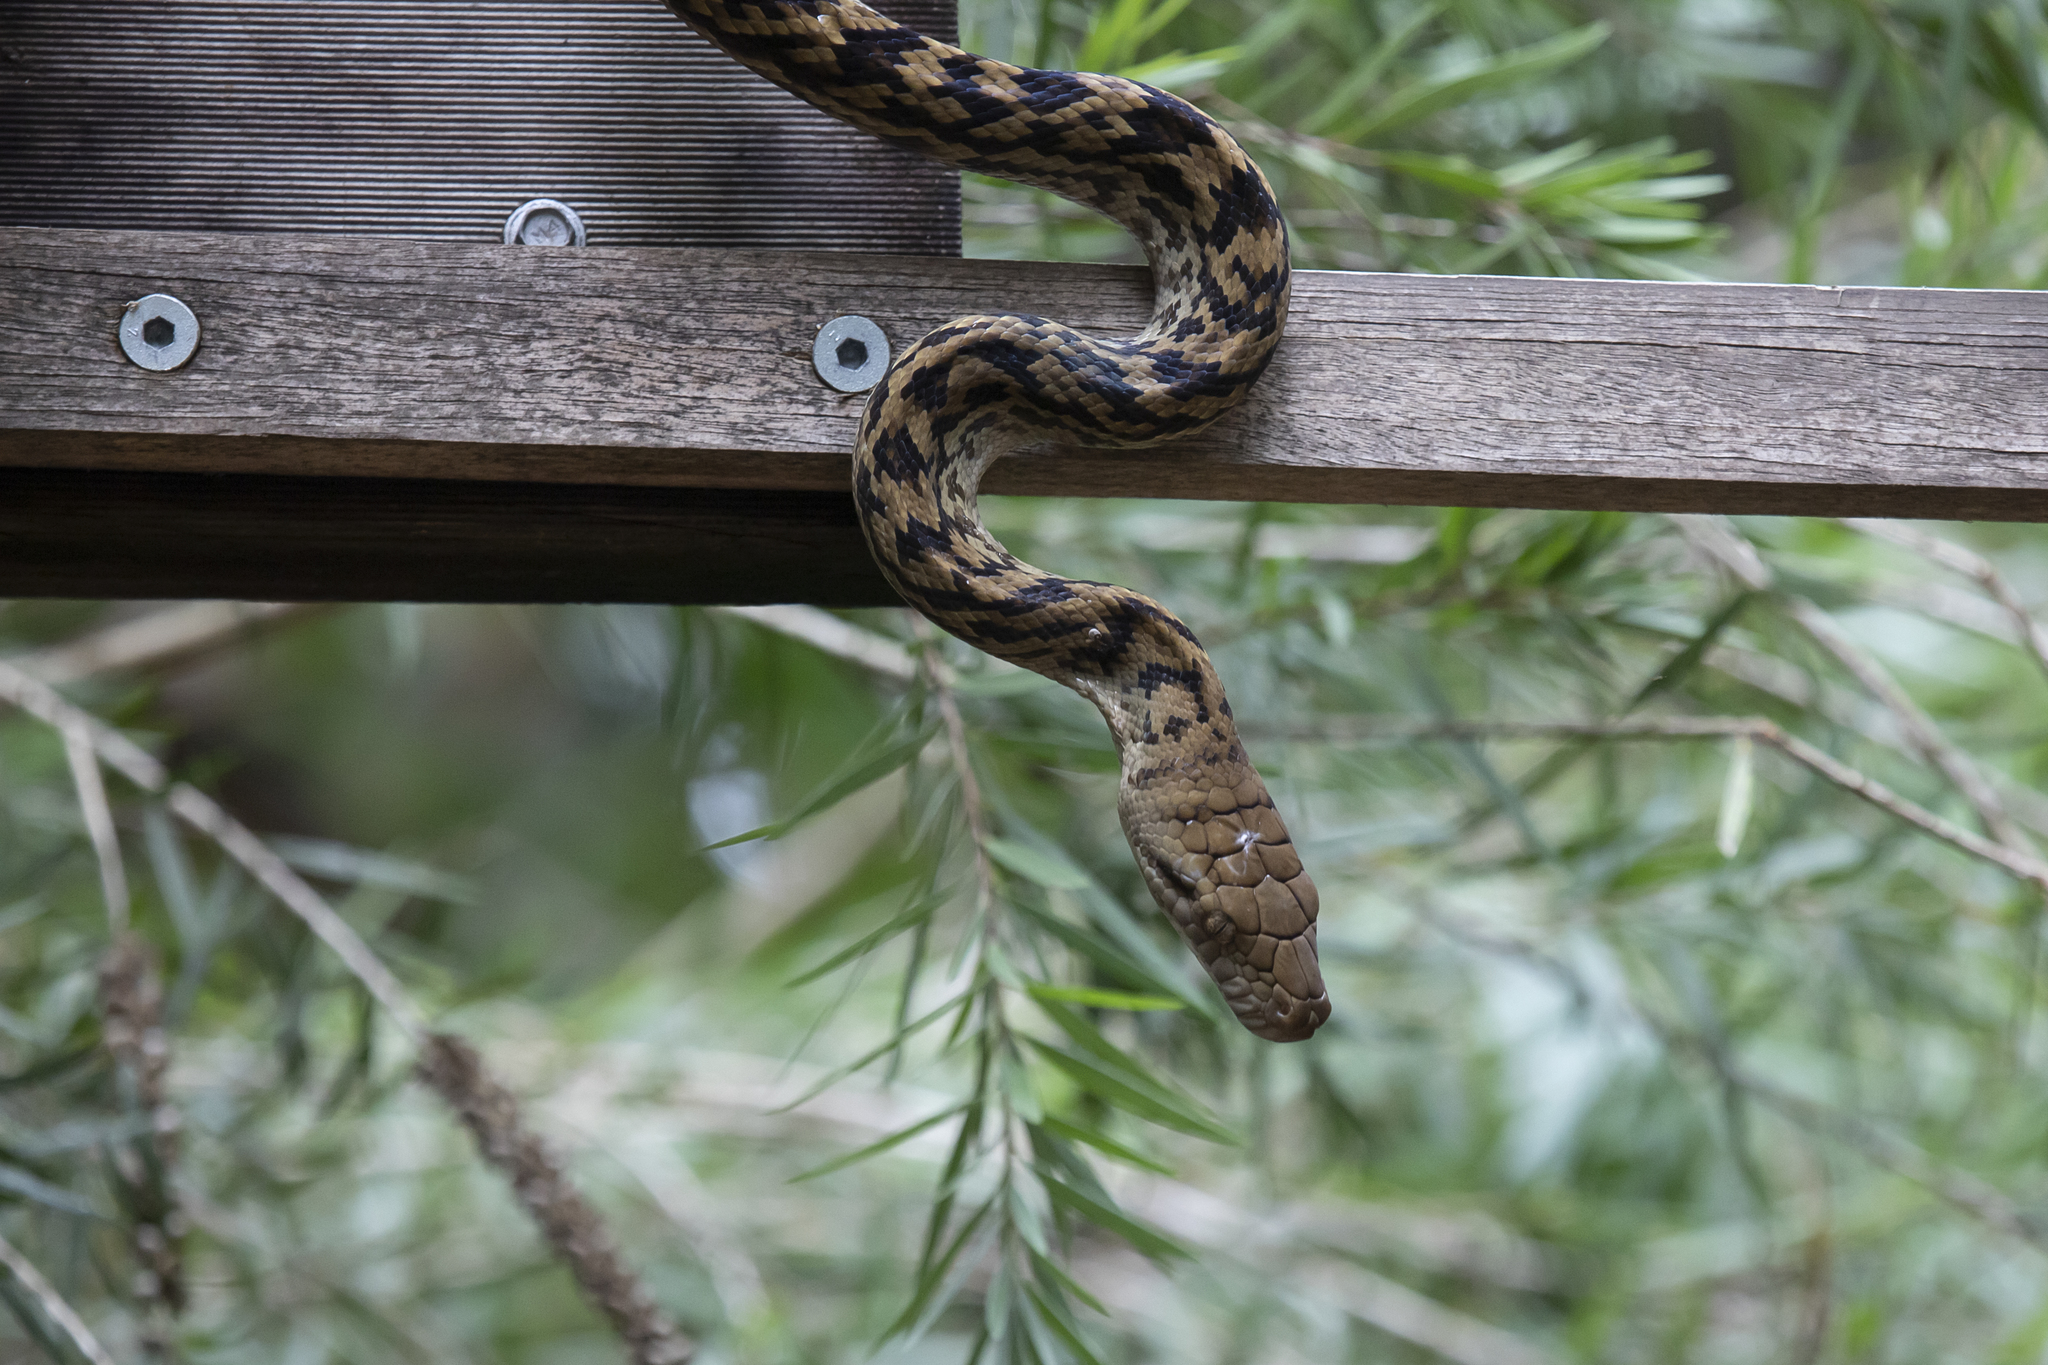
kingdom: Animalia
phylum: Chordata
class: Squamata
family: Pythonidae
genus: Simalia
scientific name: Simalia kinghorni
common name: Scrub python
